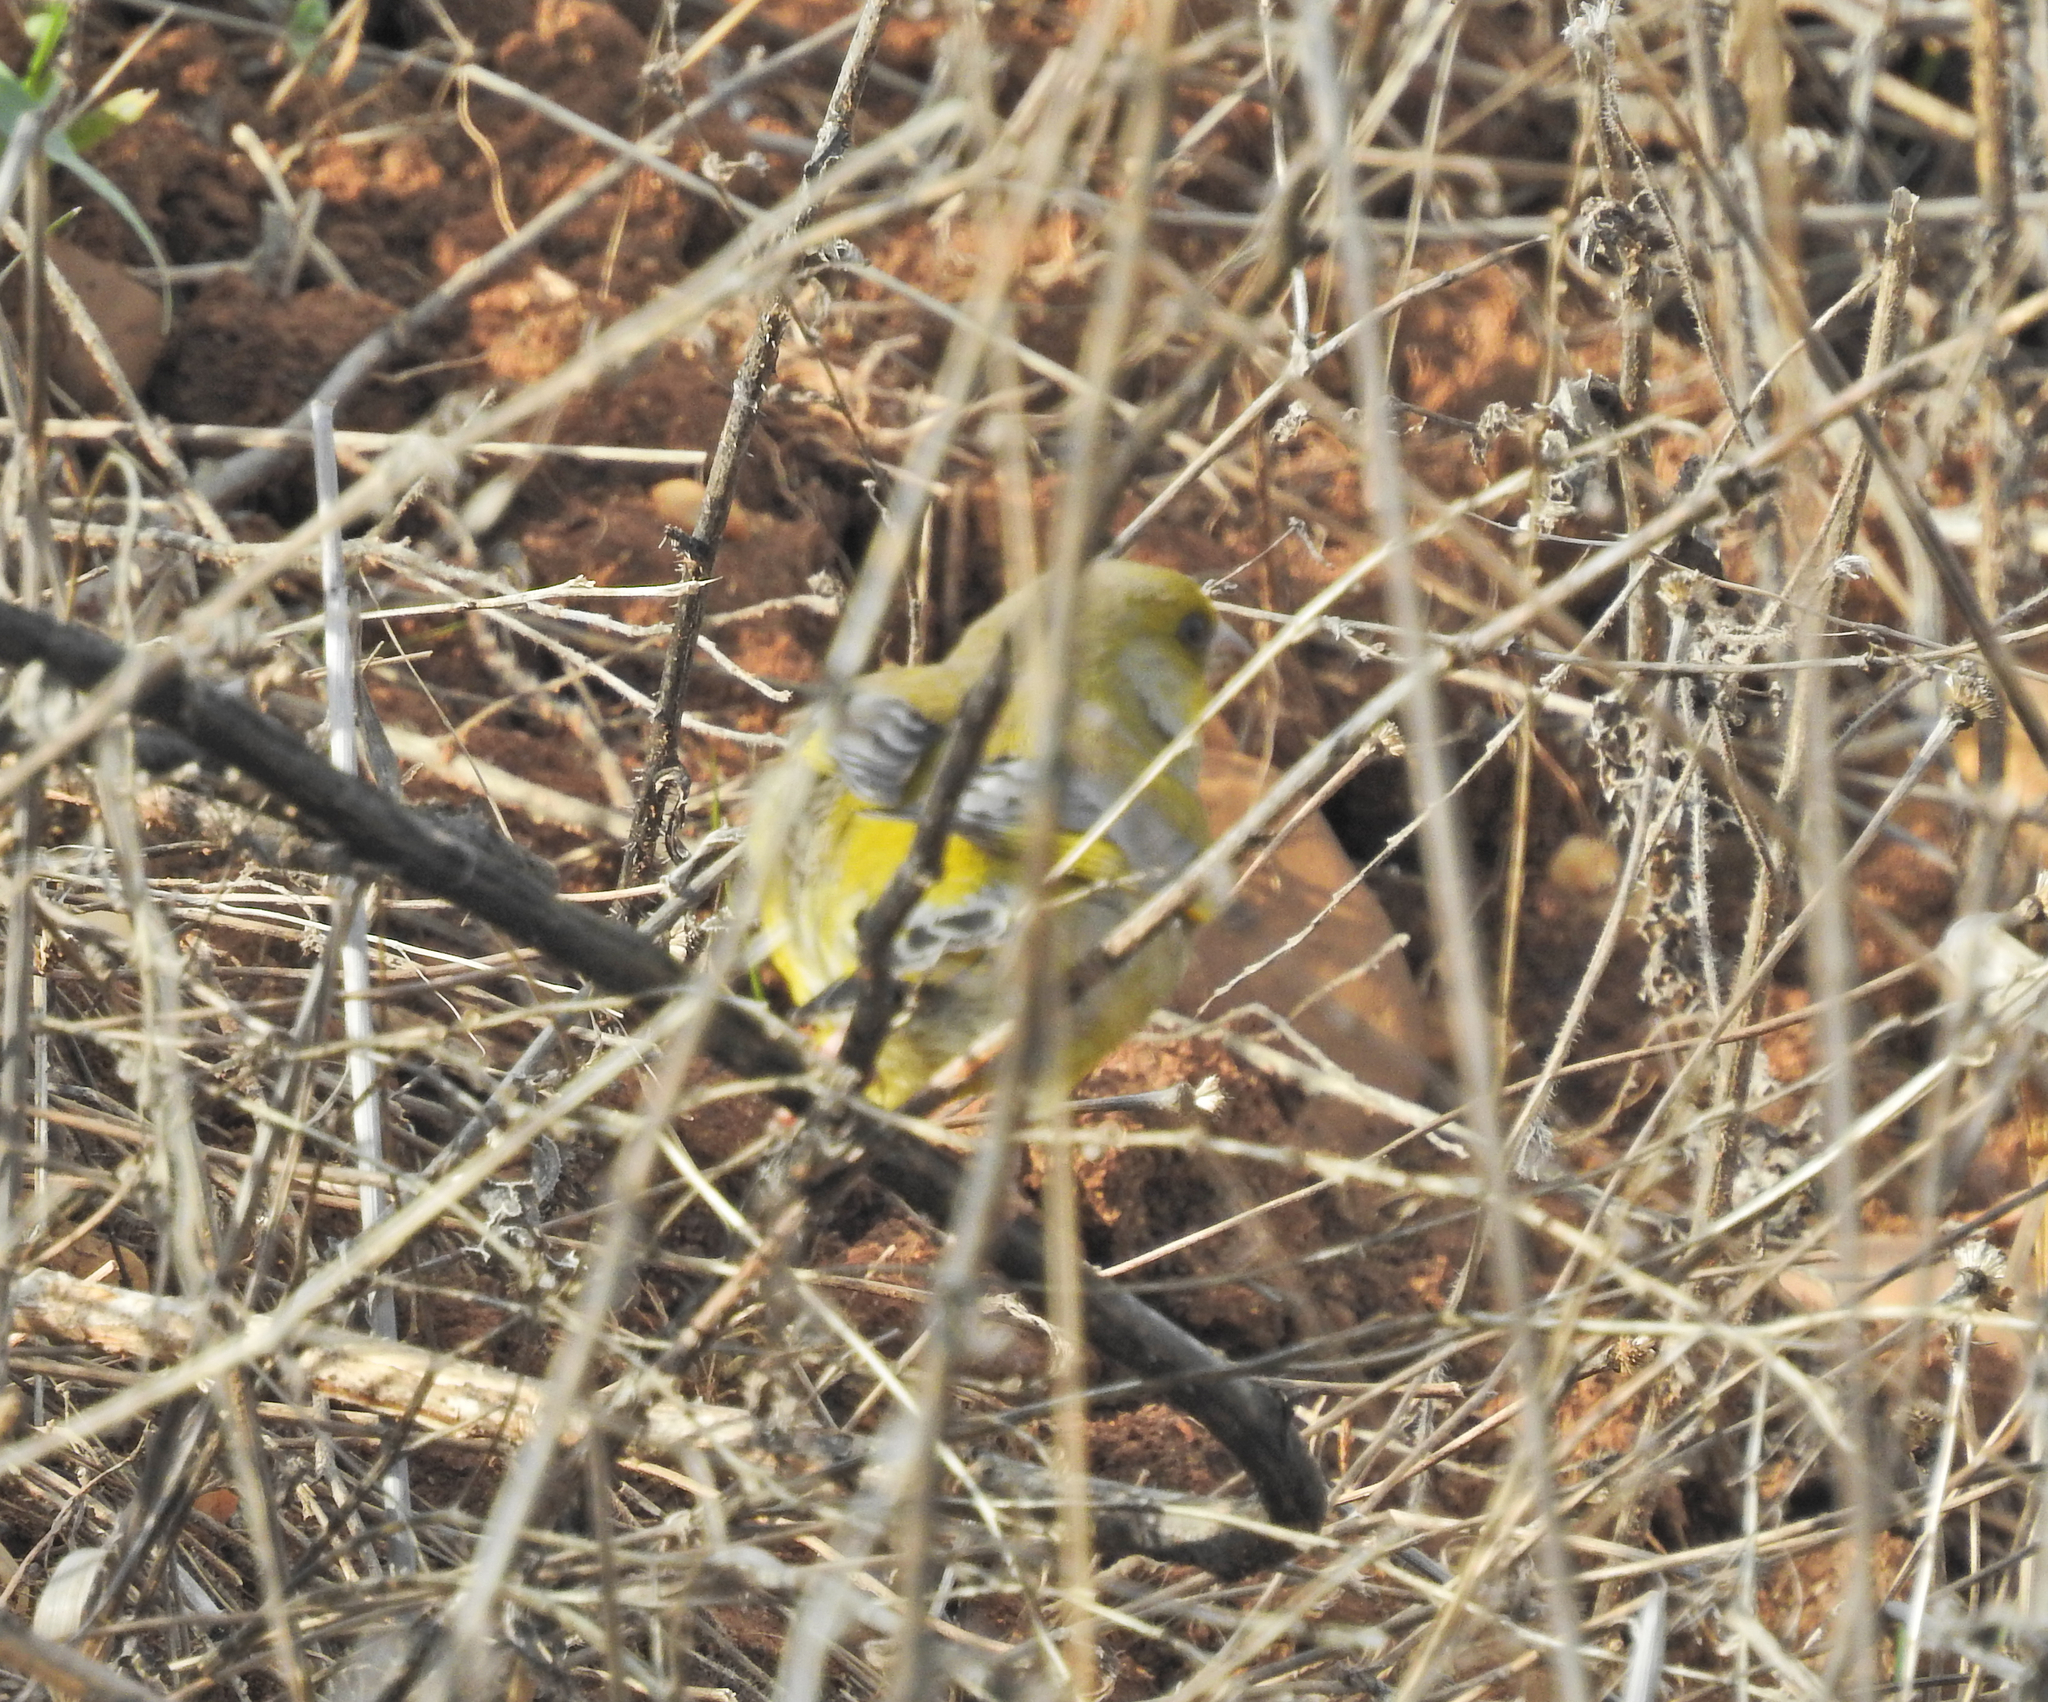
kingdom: Plantae
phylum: Tracheophyta
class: Liliopsida
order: Poales
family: Poaceae
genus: Chloris
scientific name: Chloris chloris
